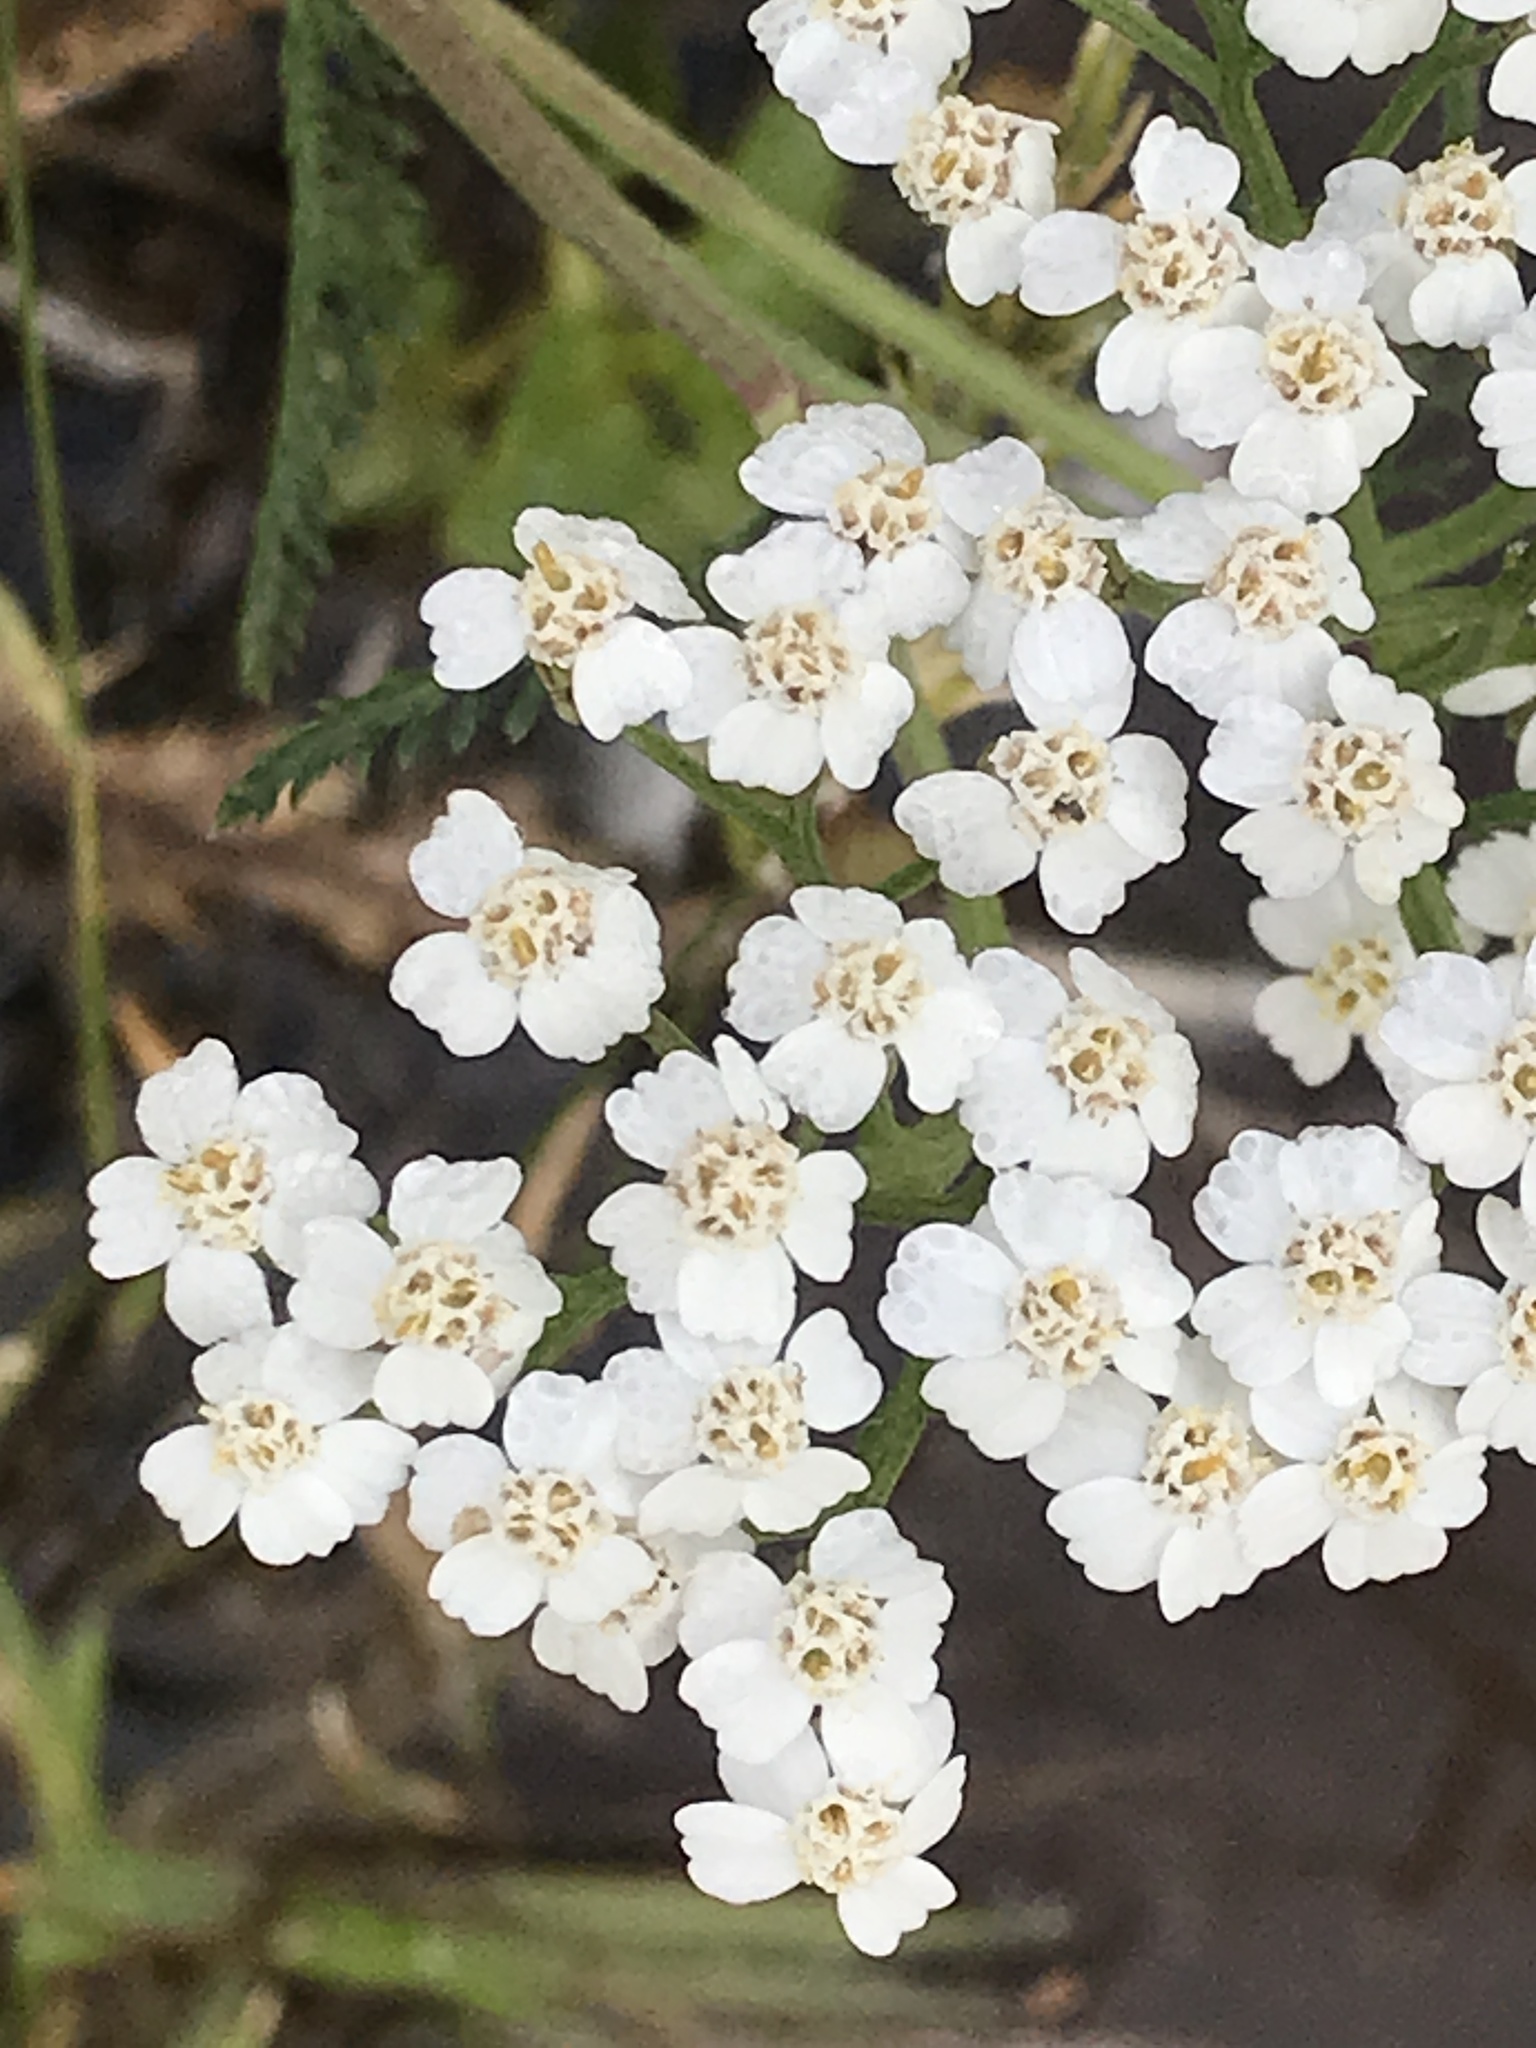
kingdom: Plantae
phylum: Tracheophyta
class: Magnoliopsida
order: Asterales
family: Asteraceae
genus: Achillea
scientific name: Achillea millefolium
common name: Yarrow
